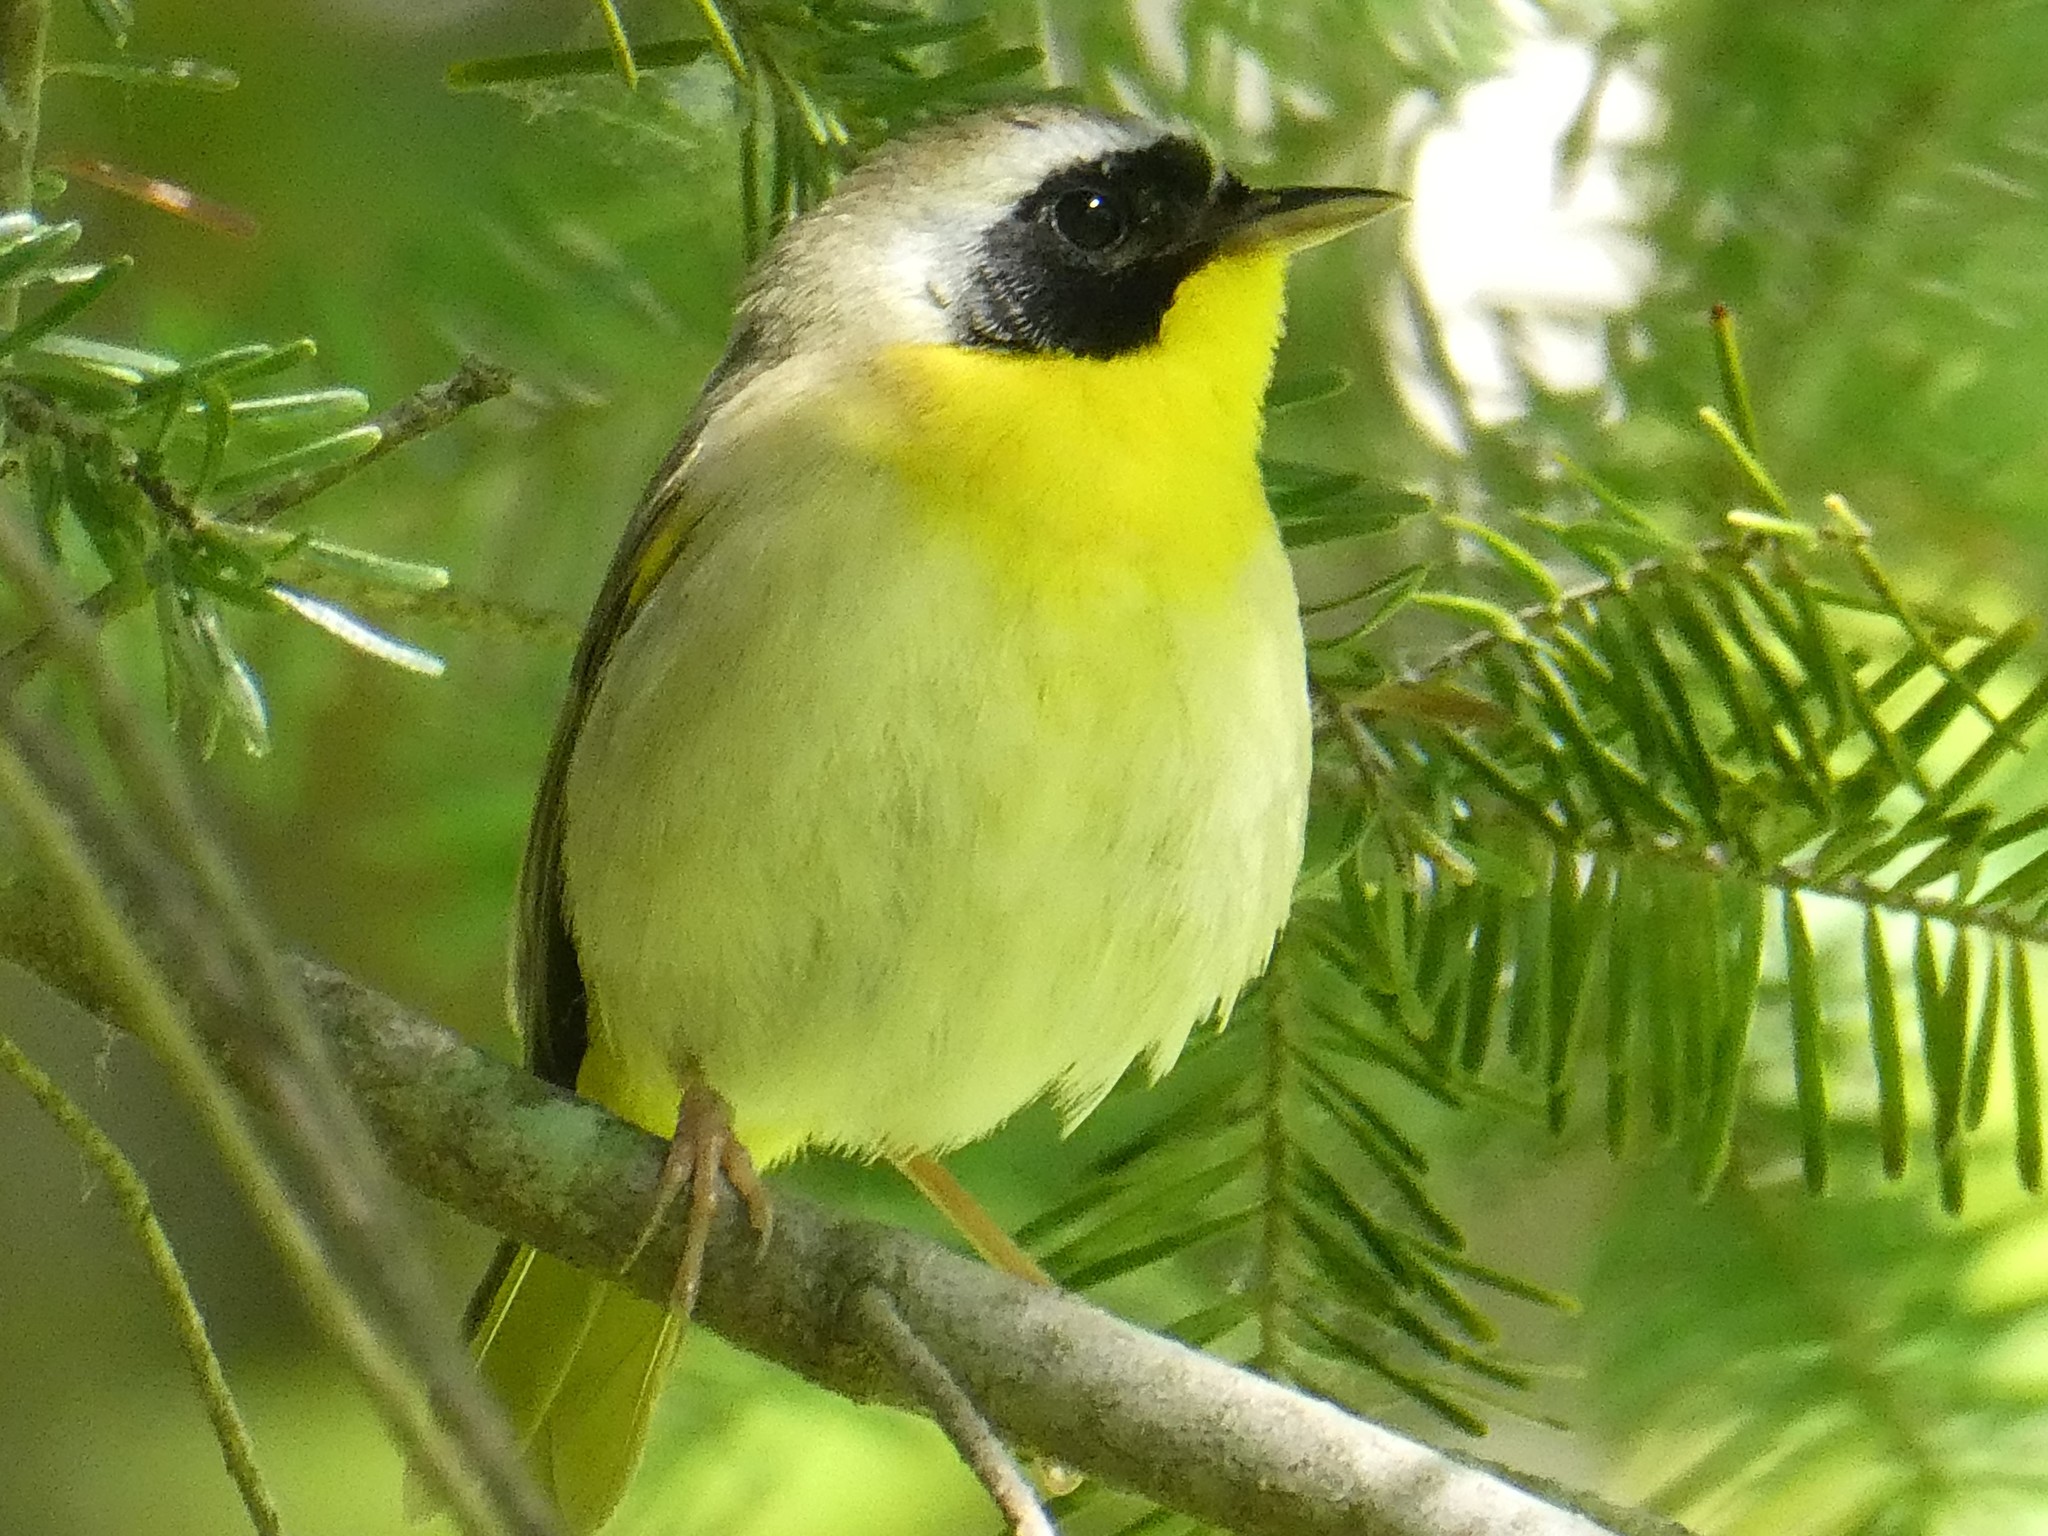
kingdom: Animalia
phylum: Chordata
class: Aves
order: Passeriformes
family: Parulidae
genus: Geothlypis
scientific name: Geothlypis trichas
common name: Common yellowthroat
